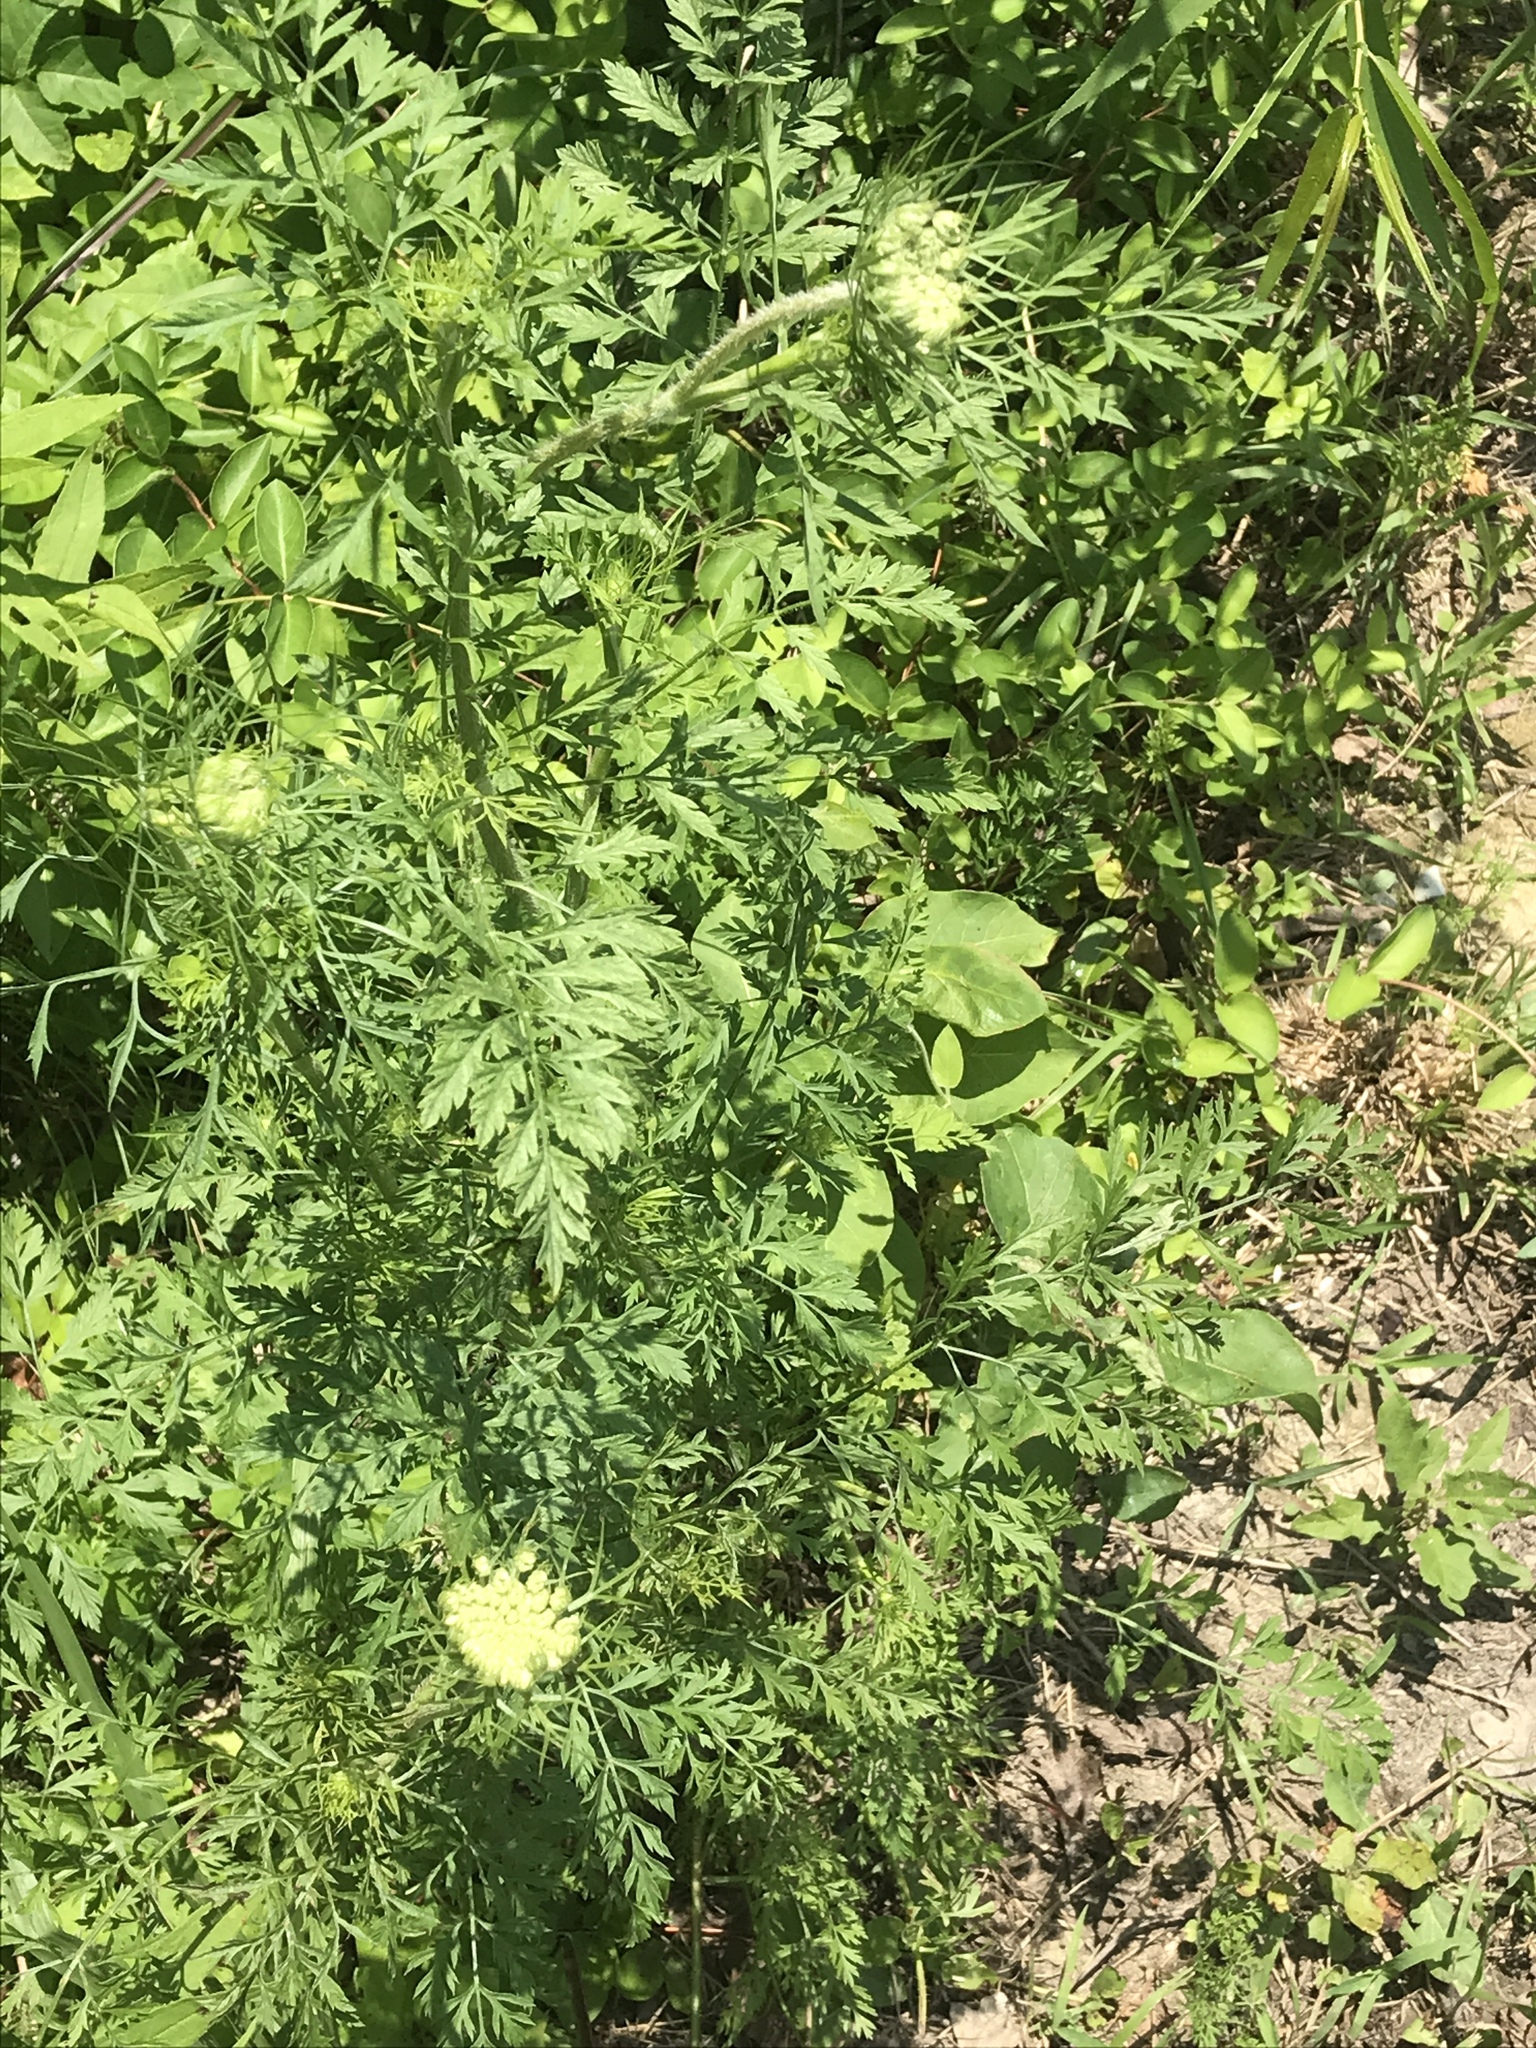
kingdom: Plantae
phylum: Tracheophyta
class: Magnoliopsida
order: Apiales
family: Apiaceae
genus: Daucus
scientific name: Daucus carota
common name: Wild carrot
